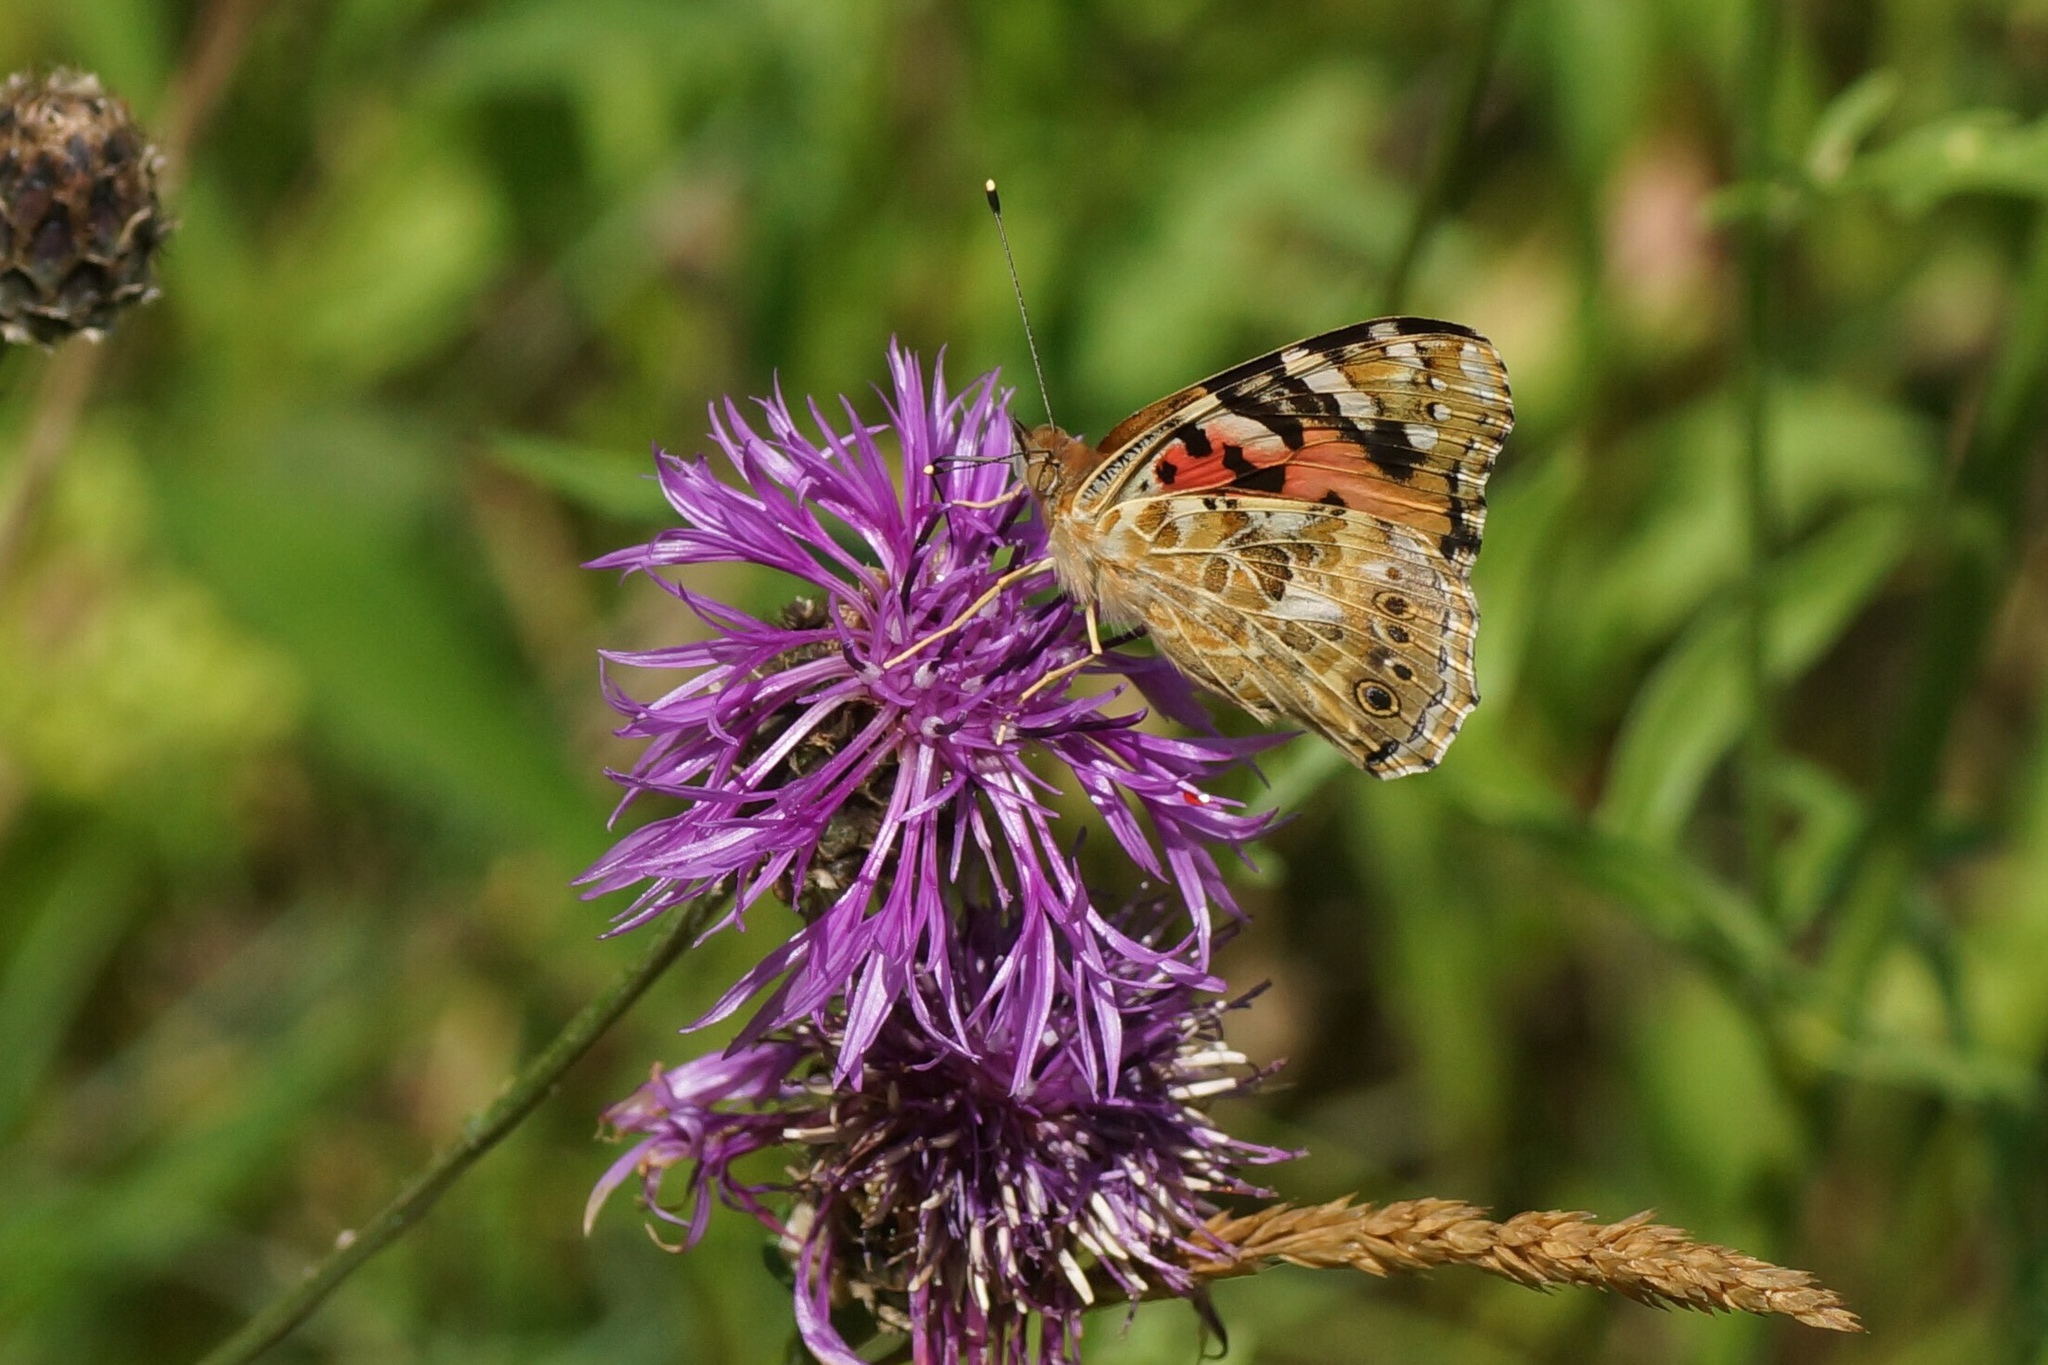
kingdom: Animalia
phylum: Arthropoda
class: Insecta
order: Lepidoptera
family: Nymphalidae
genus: Vanessa
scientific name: Vanessa cardui
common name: Painted lady
